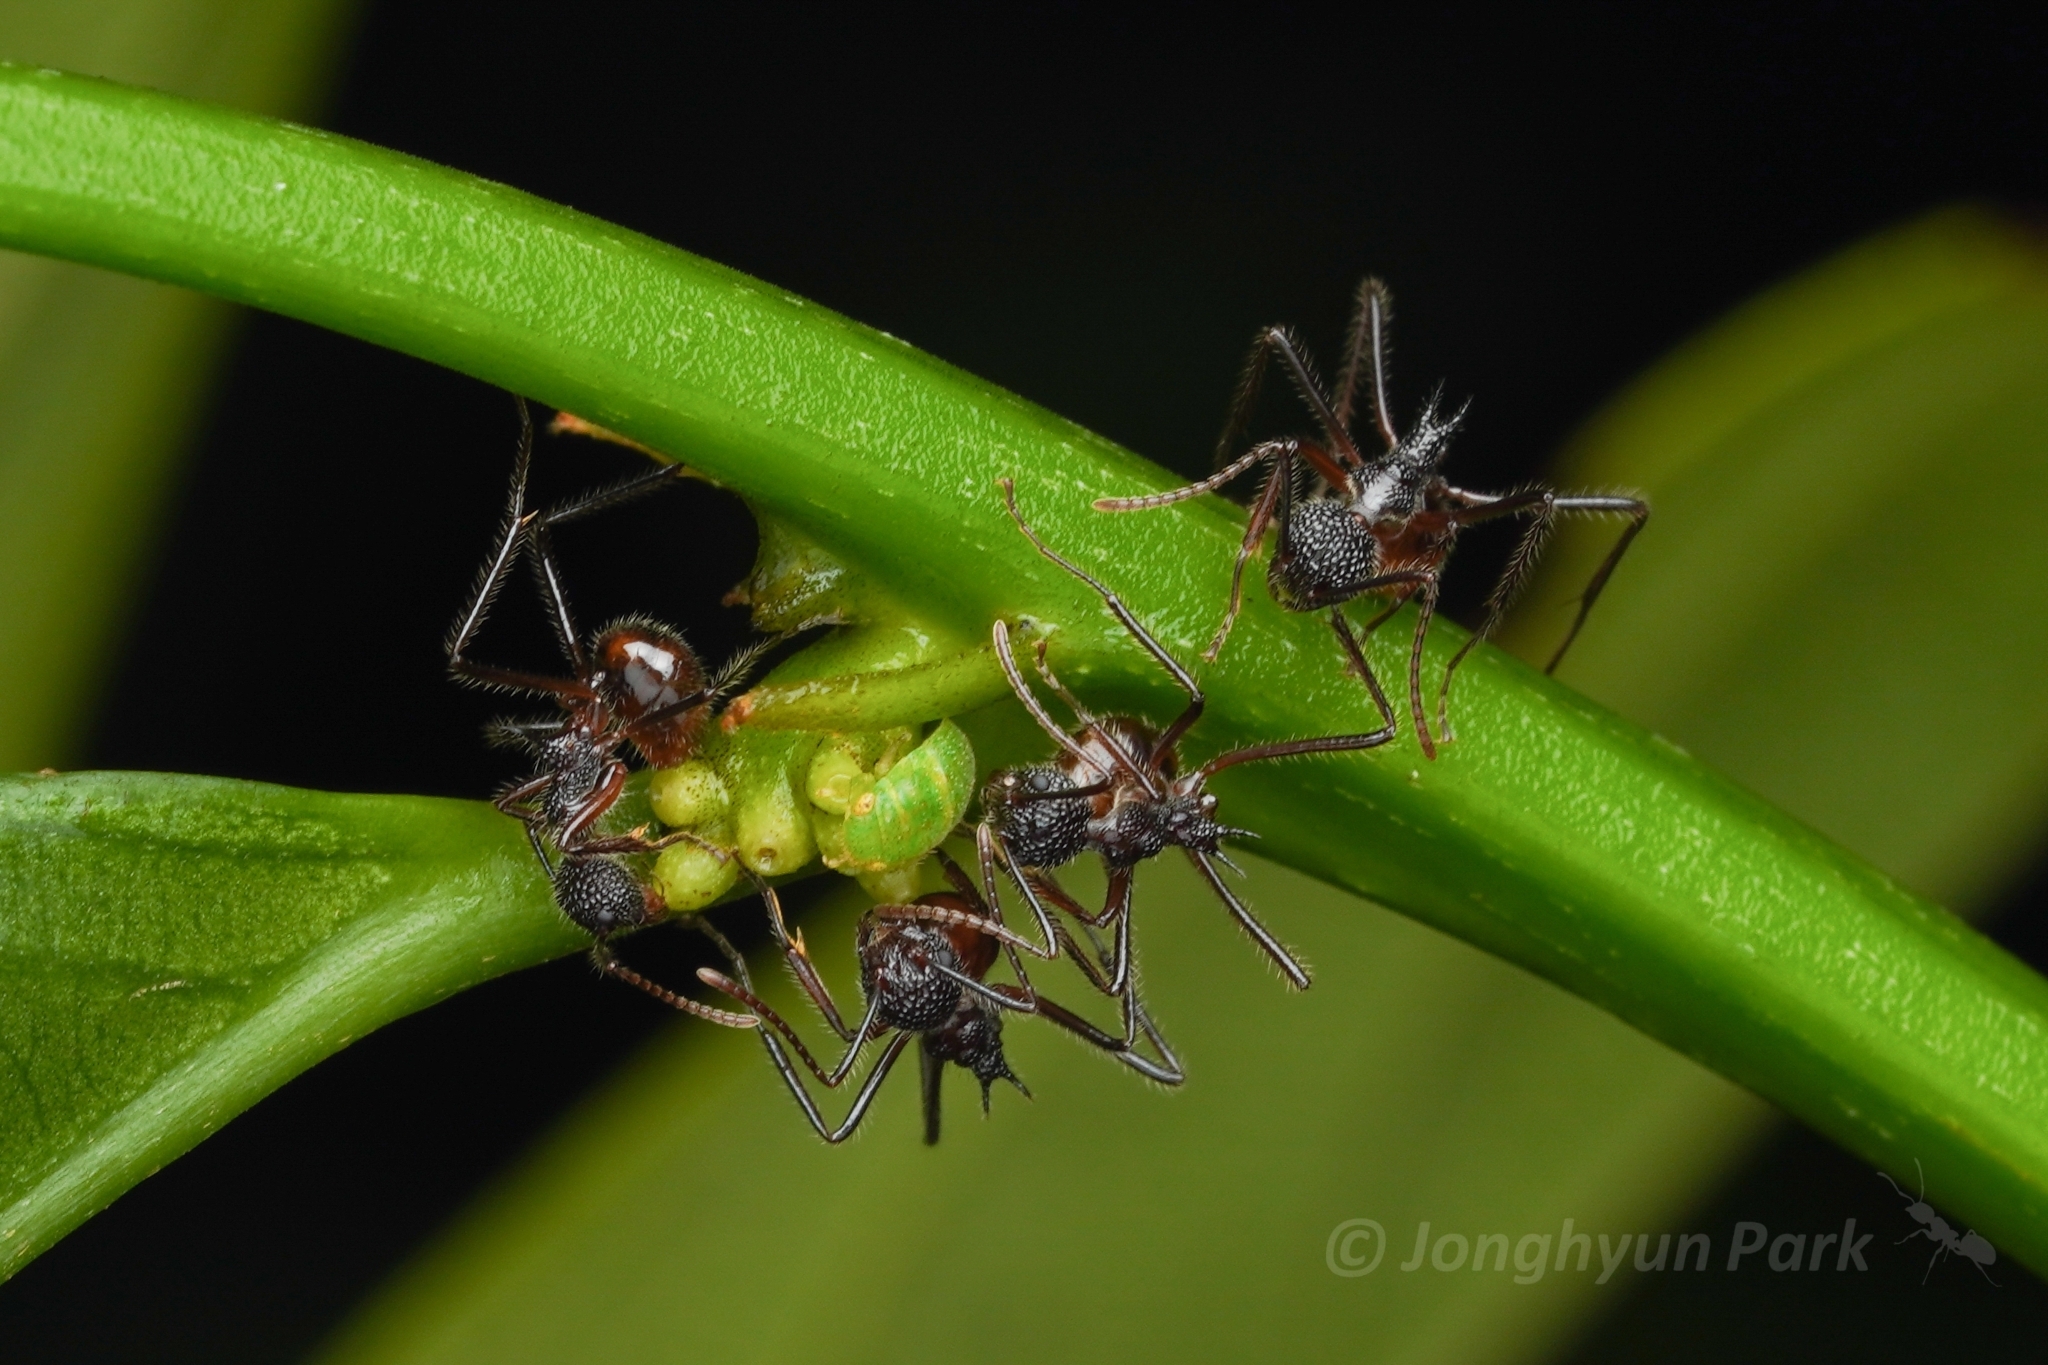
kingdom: Animalia
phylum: Arthropoda
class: Insecta
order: Hymenoptera
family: Formicidae
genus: Dolichoderus
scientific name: Dolichoderus indrapurensis
